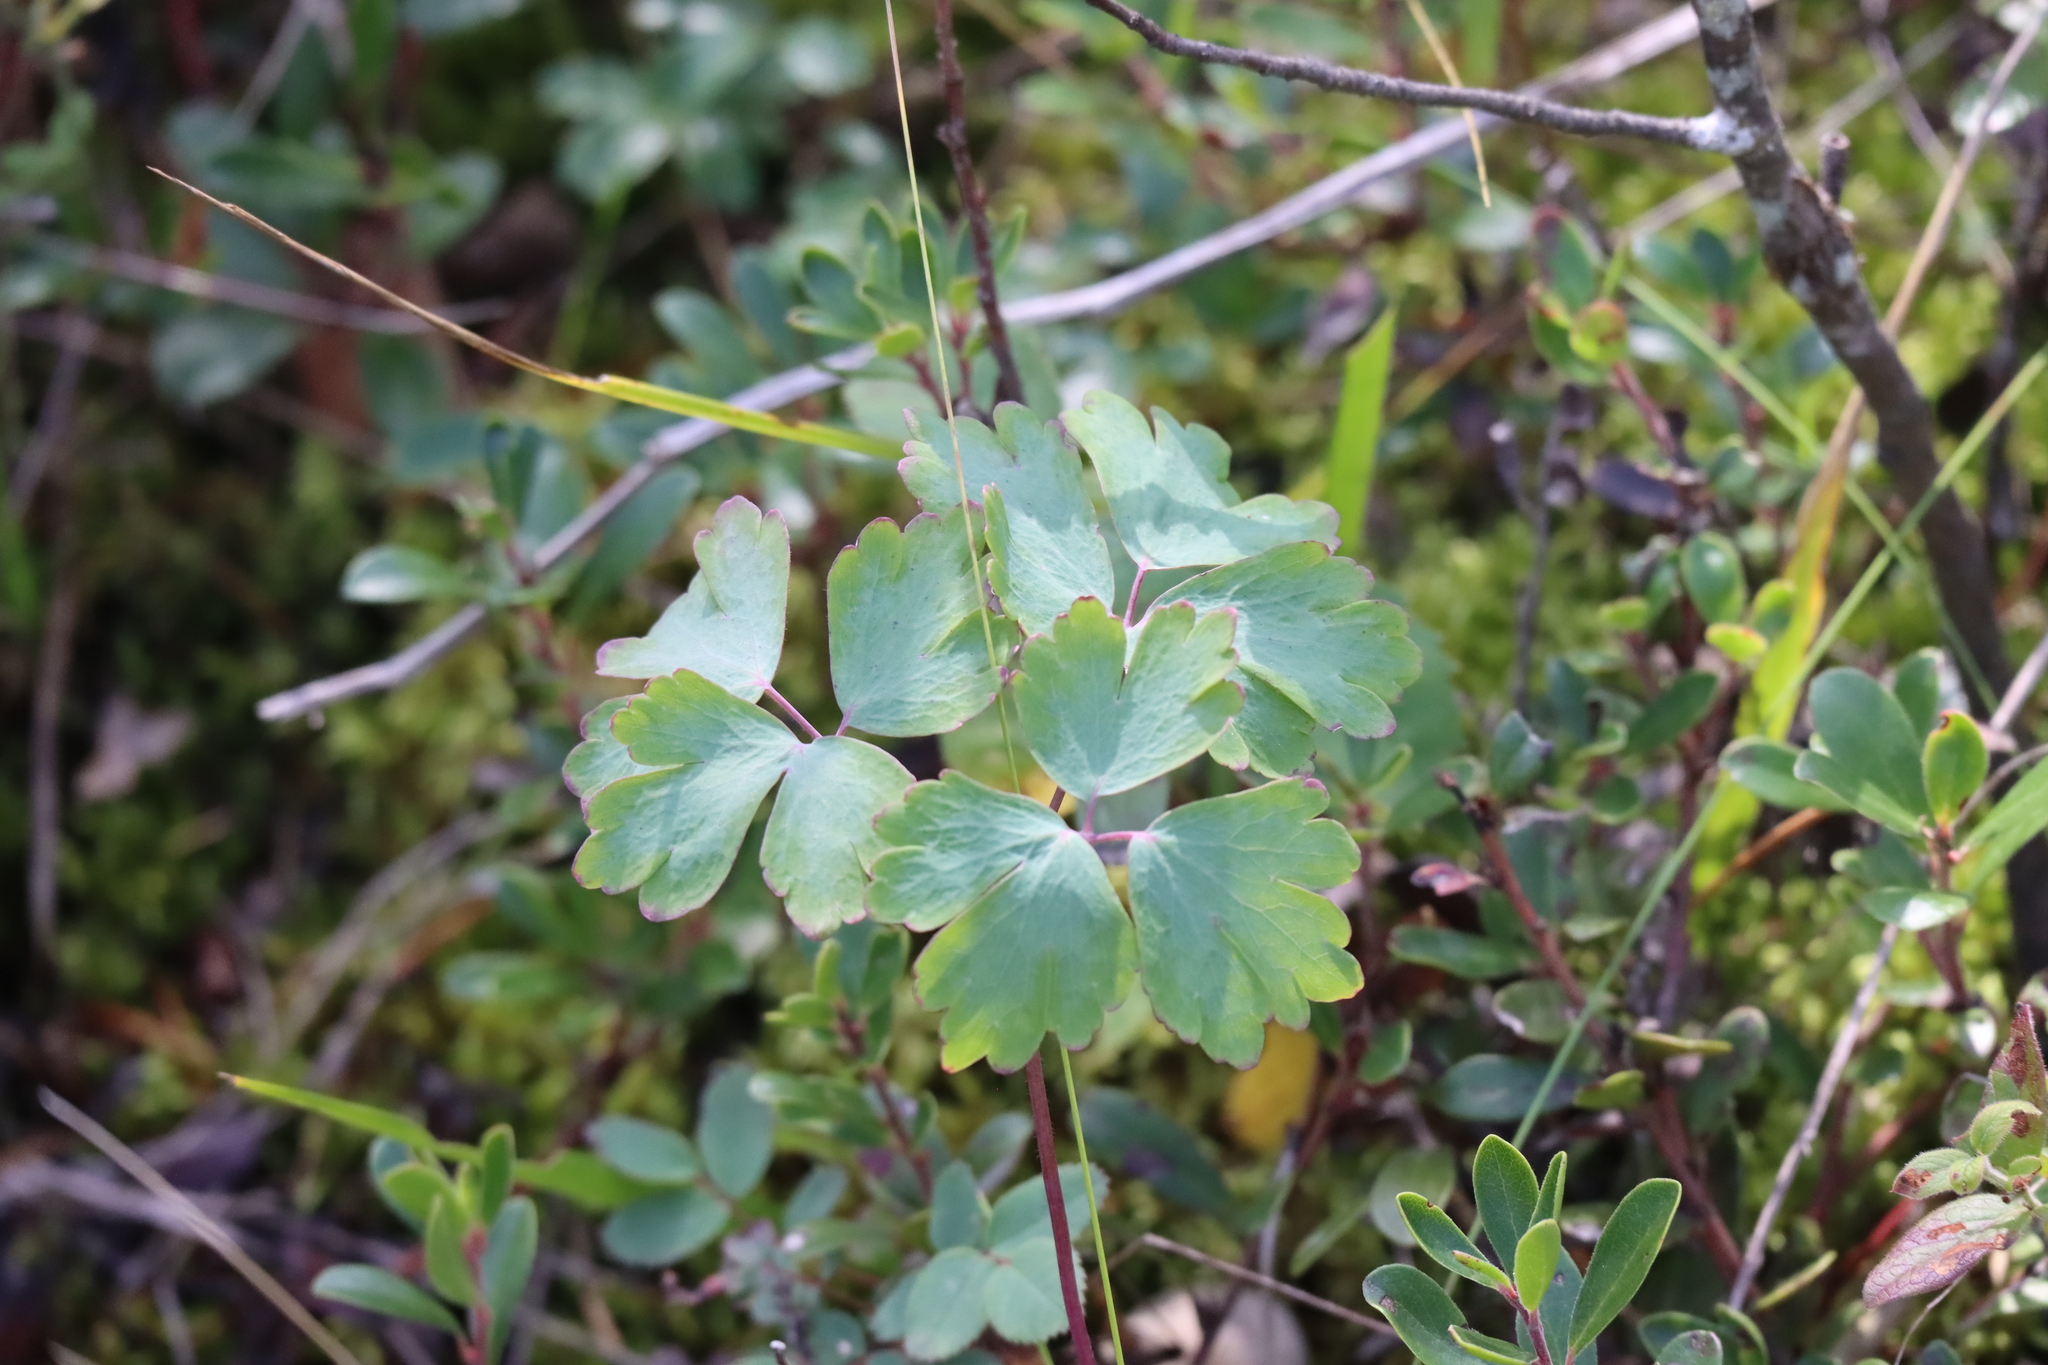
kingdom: Plantae
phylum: Tracheophyta
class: Magnoliopsida
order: Ranunculales
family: Ranunculaceae
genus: Aquilegia
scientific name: Aquilegia canadensis
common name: American columbine
